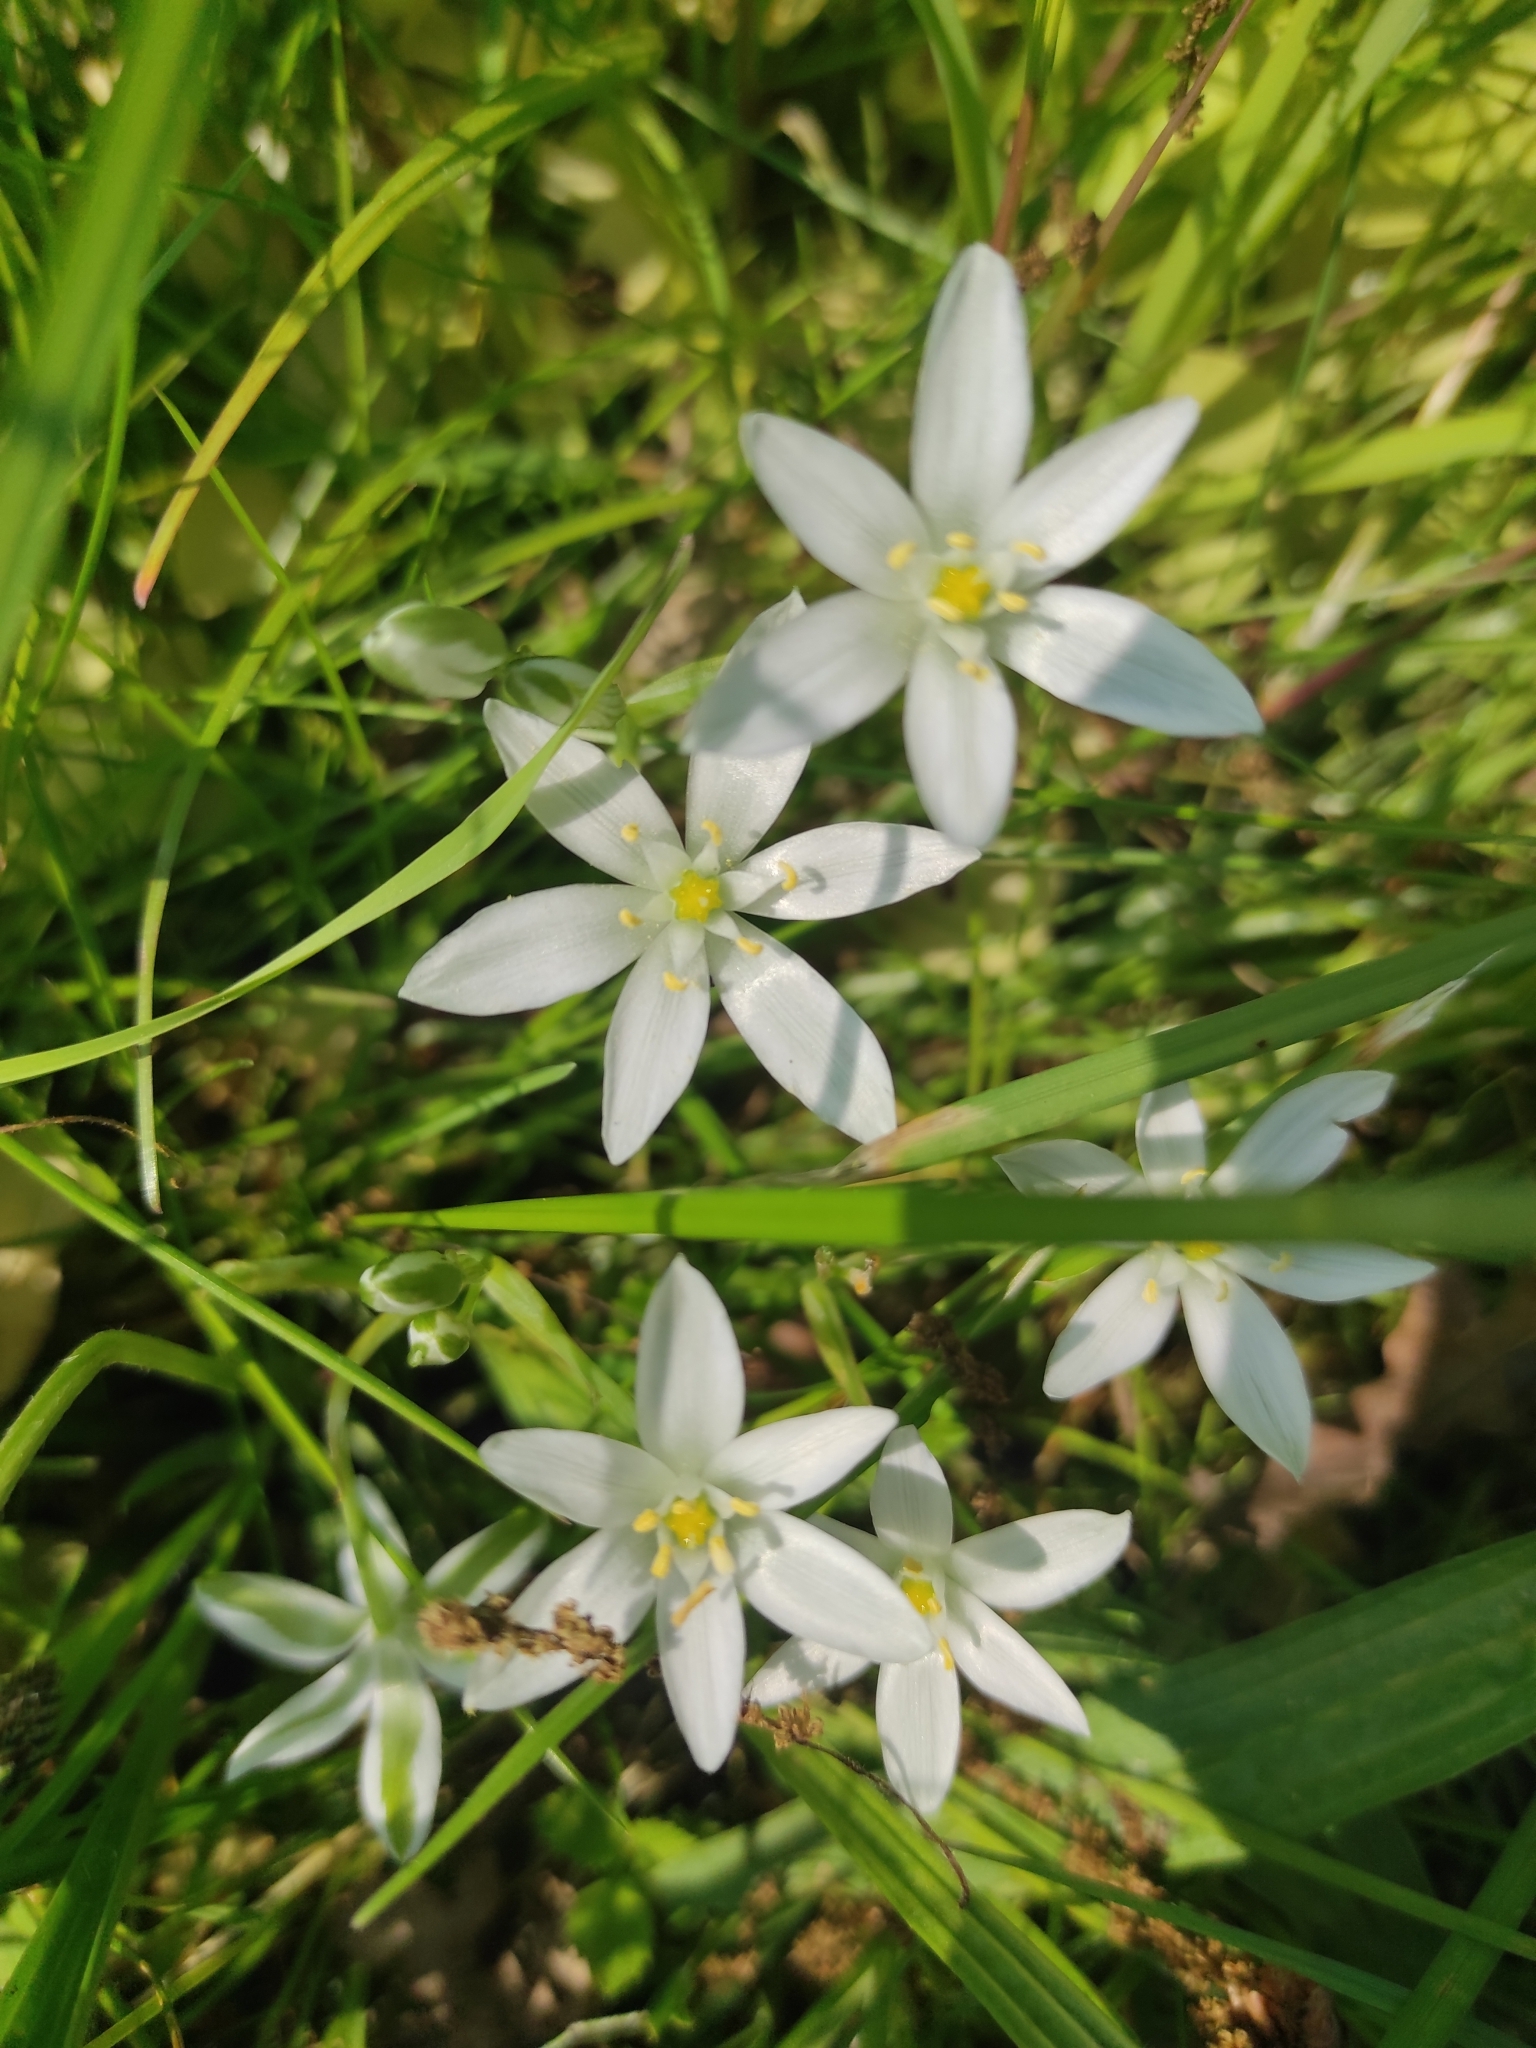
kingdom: Plantae
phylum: Tracheophyta
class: Liliopsida
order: Asparagales
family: Asparagaceae
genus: Ornithogalum
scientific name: Ornithogalum umbellatum
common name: Garden star-of-bethlehem
